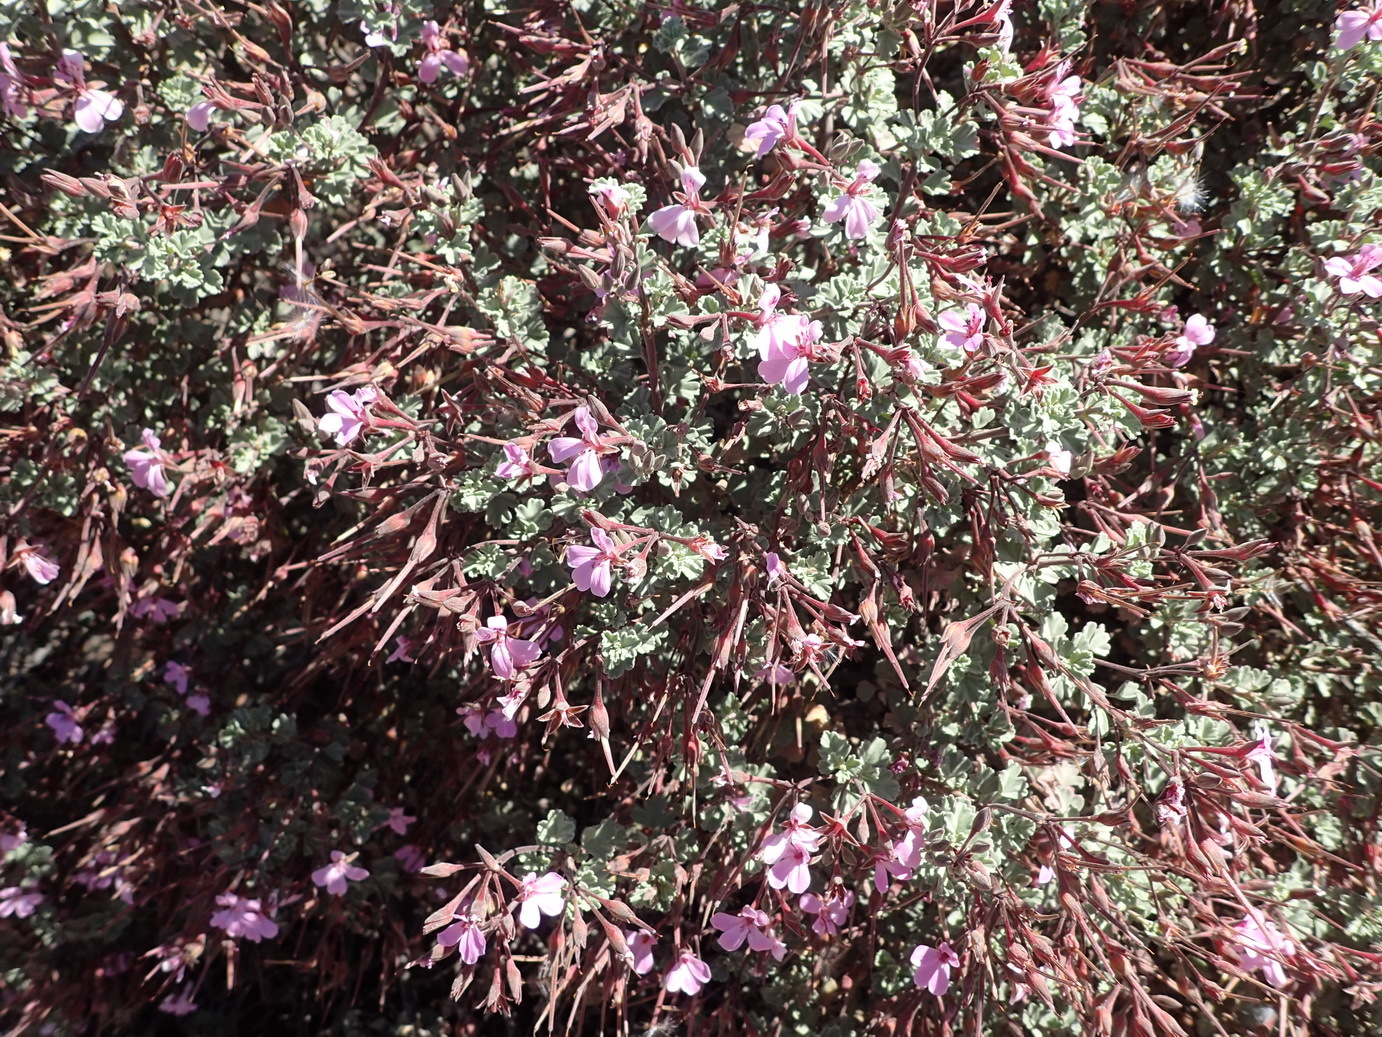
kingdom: Plantae
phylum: Tracheophyta
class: Magnoliopsida
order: Geraniales
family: Geraniaceae
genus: Pelargonium
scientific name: Pelargonium exstipulatum
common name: Soft-leaf trifid pelargonium
